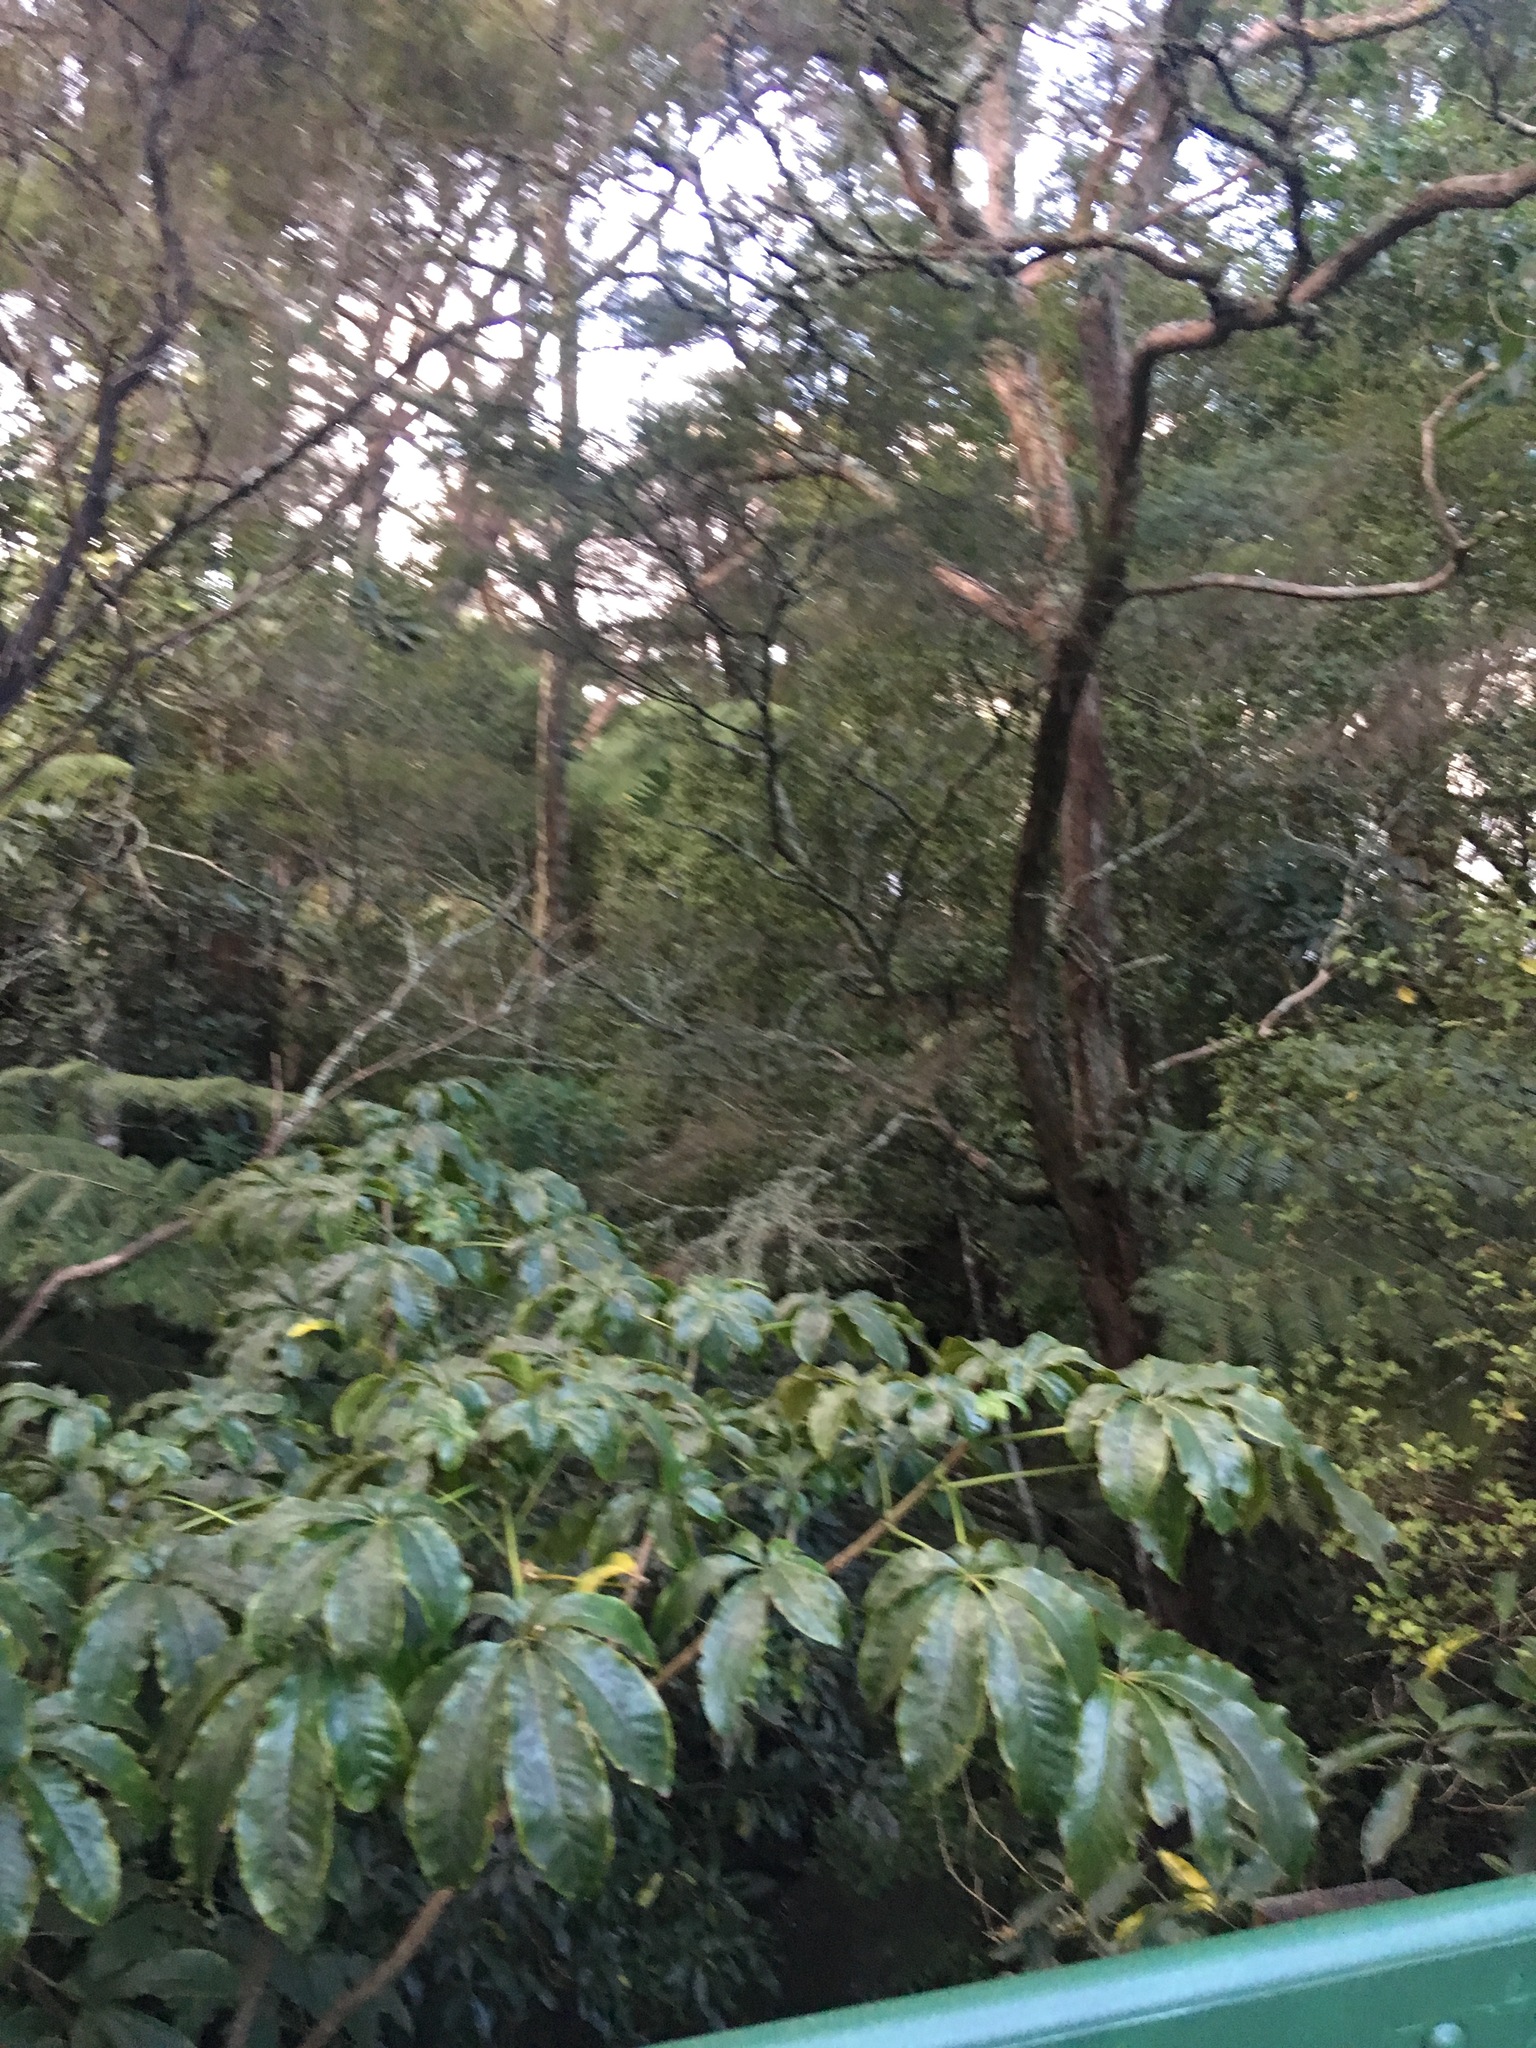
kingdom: Plantae
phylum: Tracheophyta
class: Magnoliopsida
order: Apiales
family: Araliaceae
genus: Schefflera
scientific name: Schefflera digitata
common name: Pate
